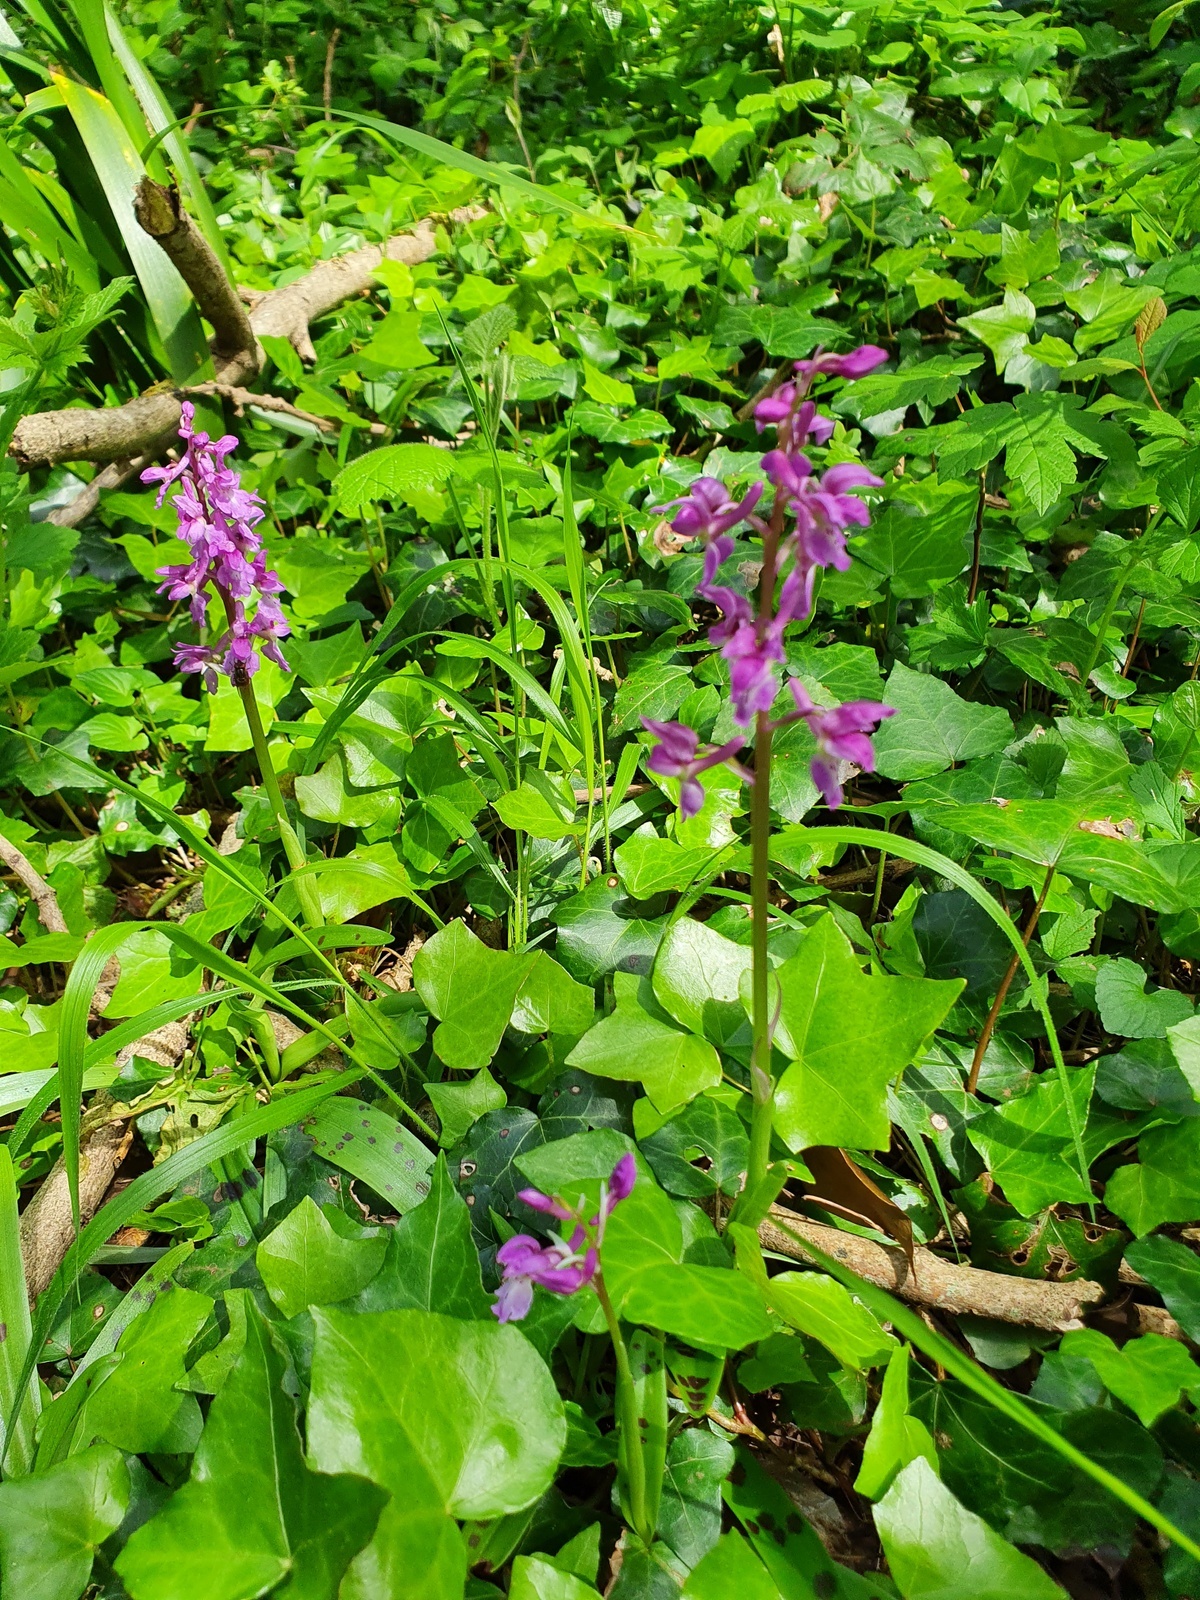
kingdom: Plantae
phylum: Tracheophyta
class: Liliopsida
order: Asparagales
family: Orchidaceae
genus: Orchis
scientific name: Orchis mascula
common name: Early-purple orchid
